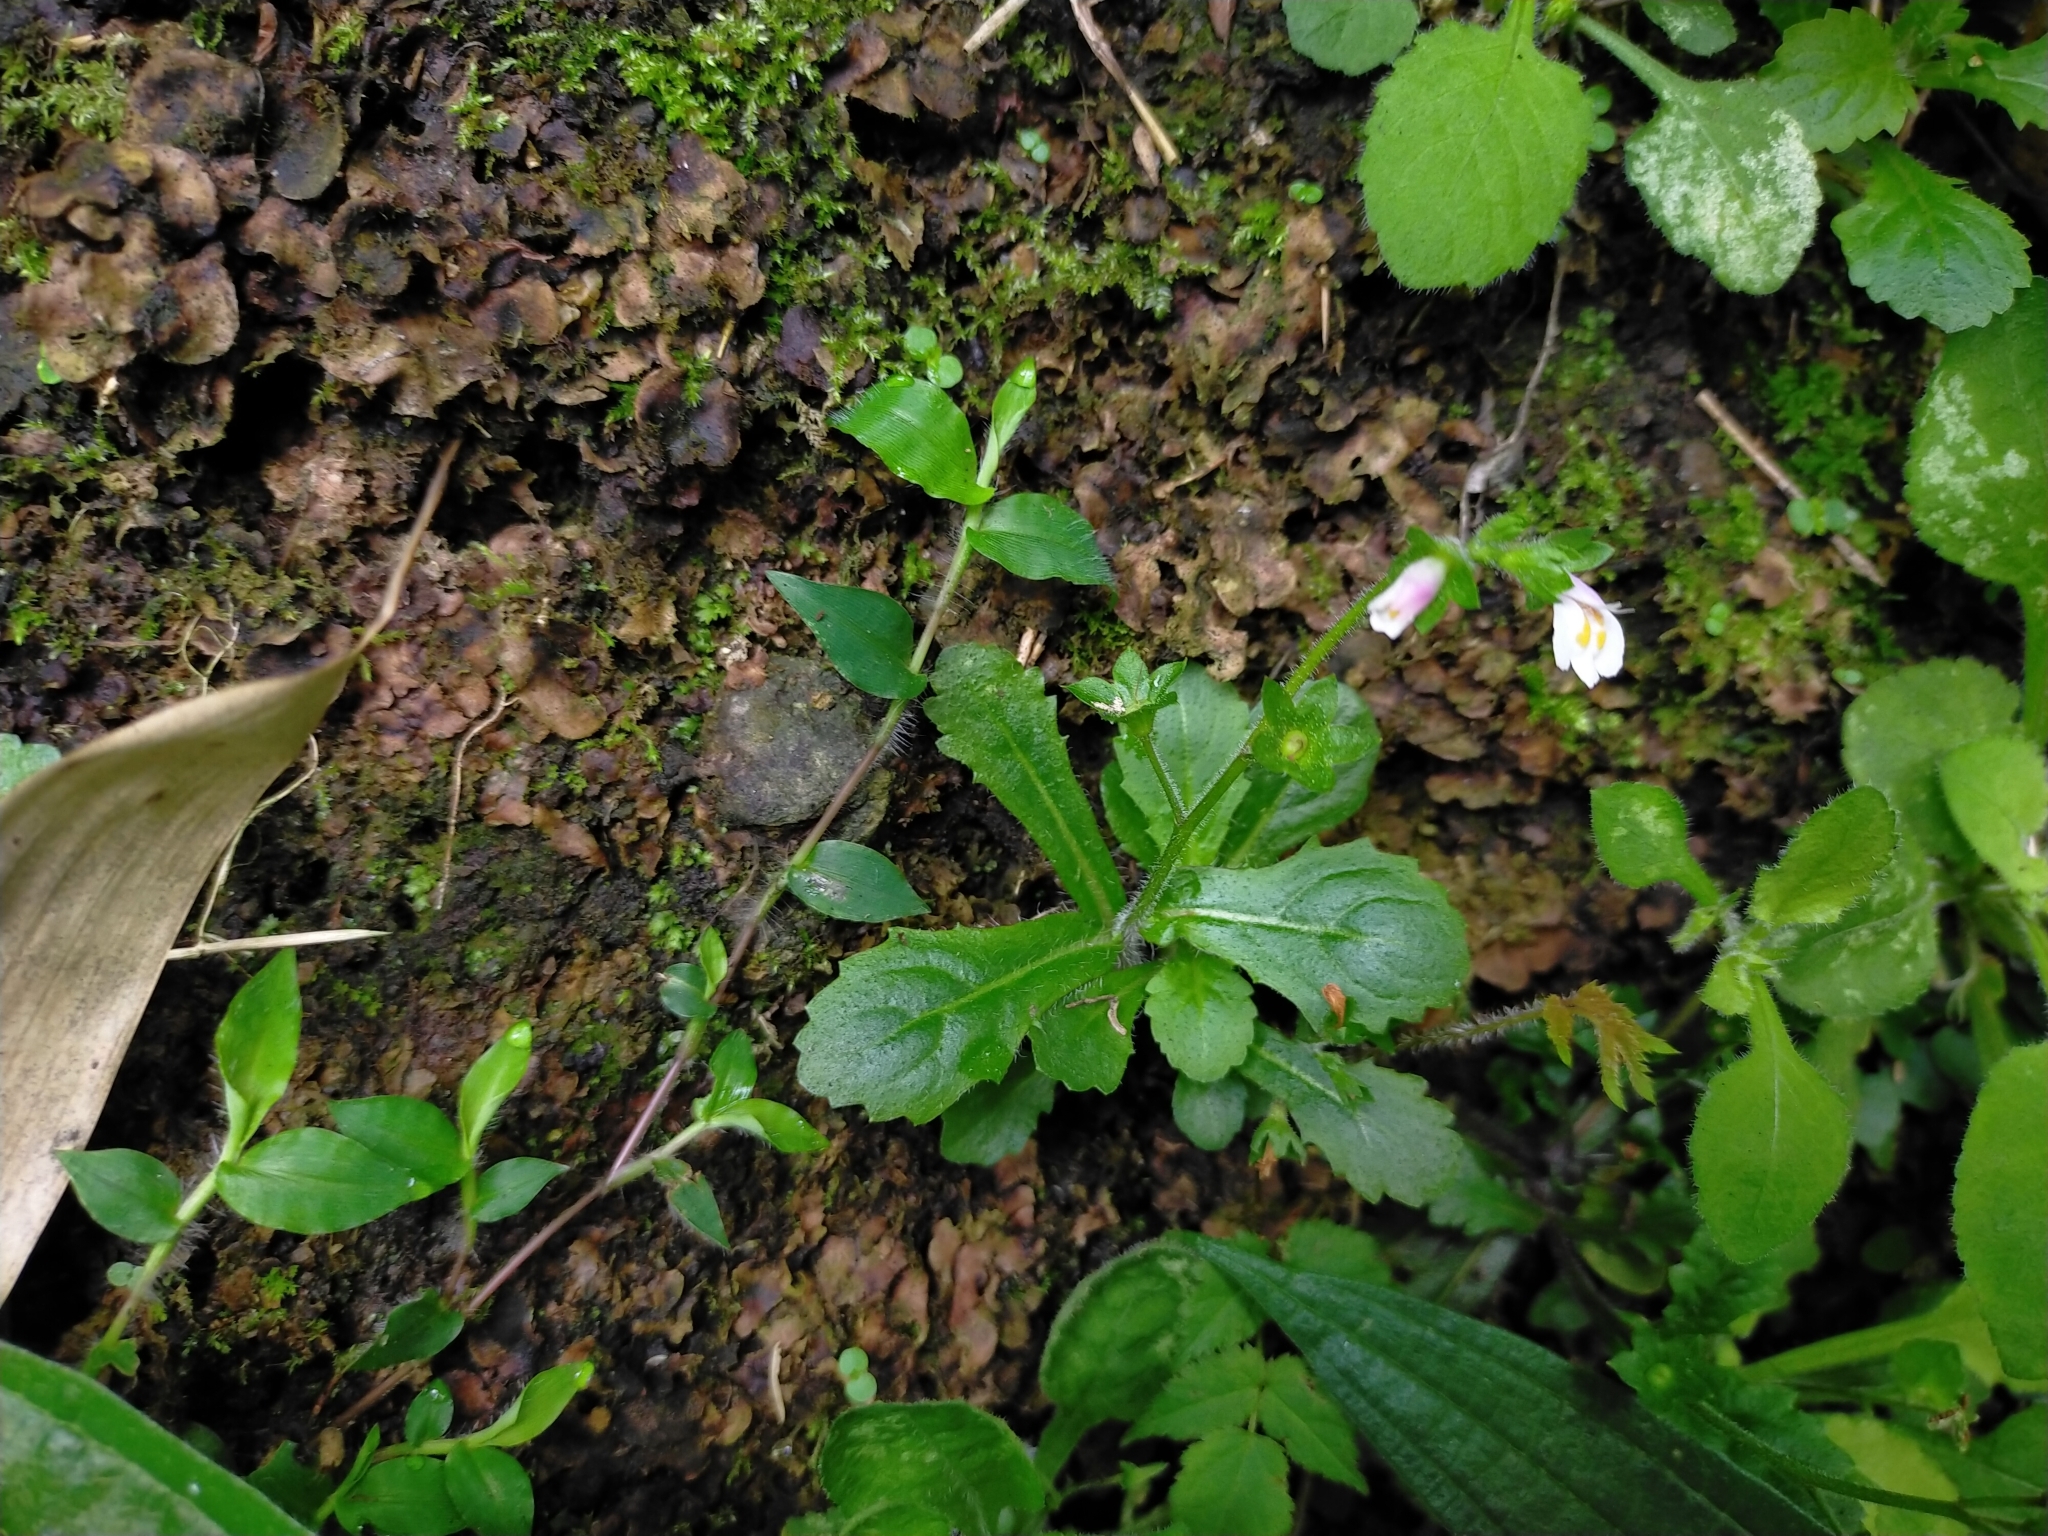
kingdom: Plantae
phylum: Tracheophyta
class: Magnoliopsida
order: Lamiales
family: Mazaceae
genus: Mazus
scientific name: Mazus goodeniifolius
